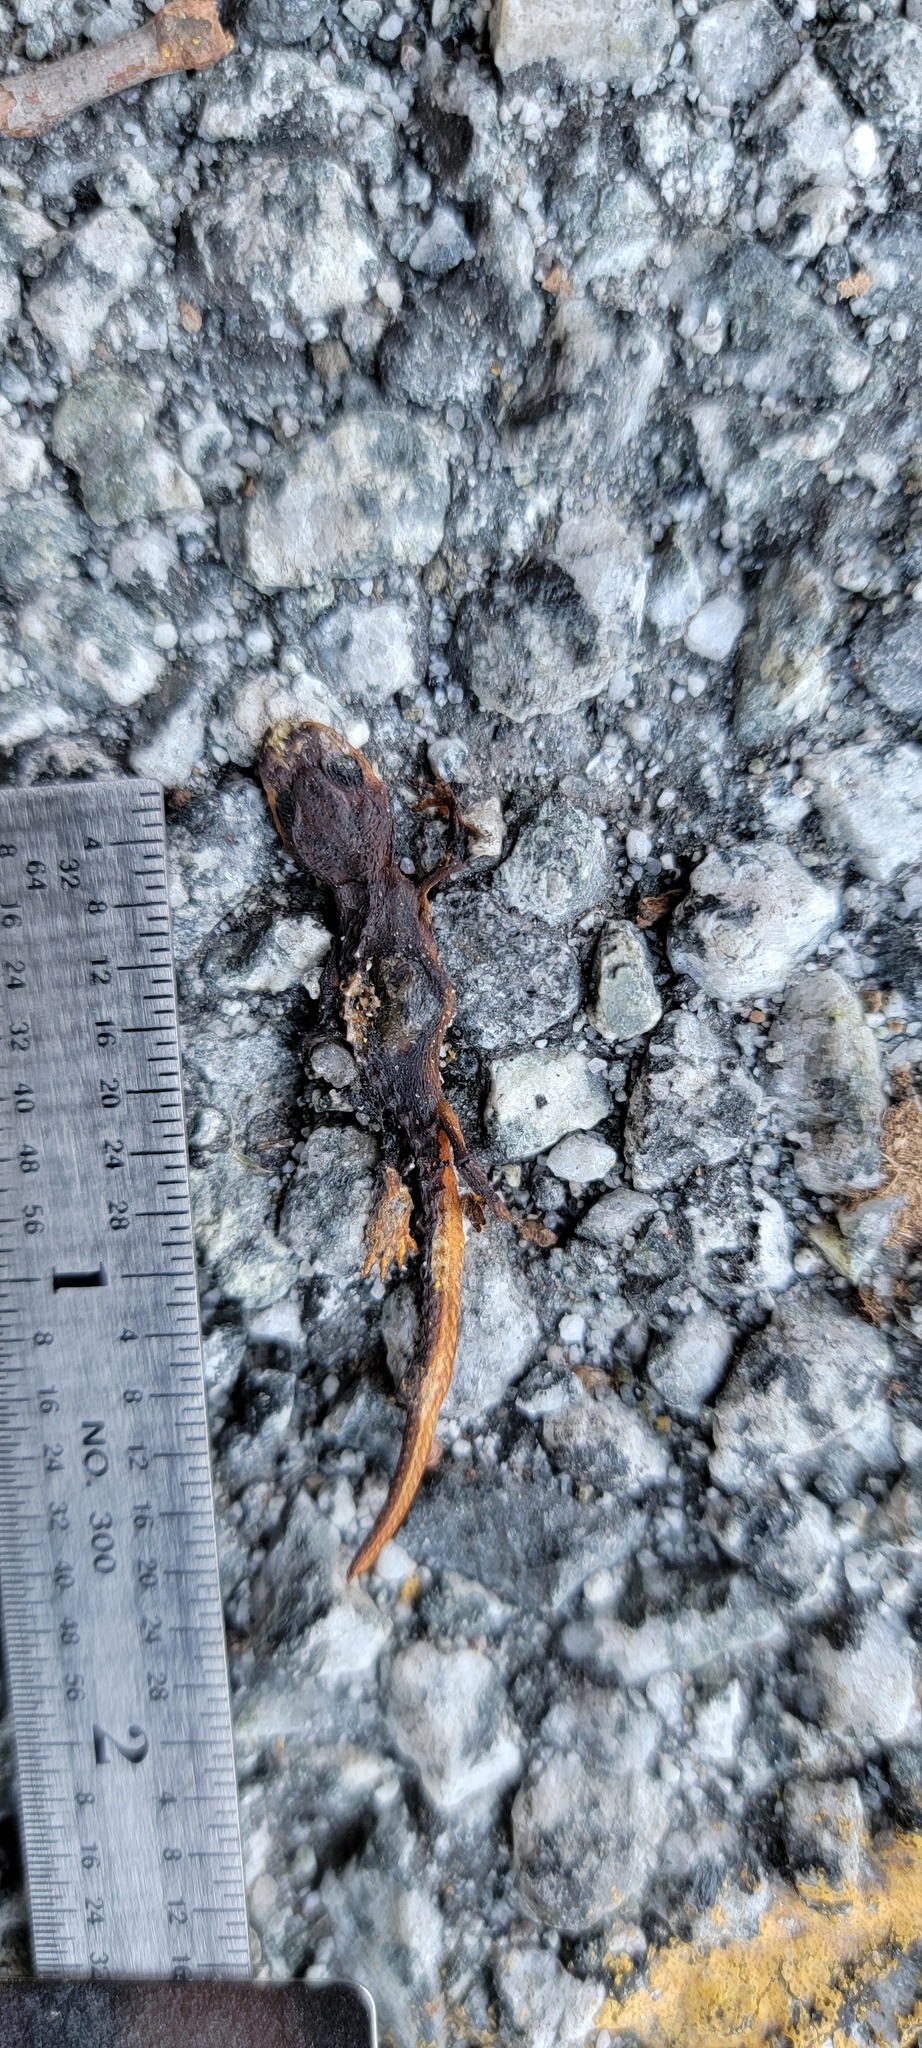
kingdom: Animalia
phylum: Chordata
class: Amphibia
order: Caudata
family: Salamandridae
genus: Taricha
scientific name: Taricha
